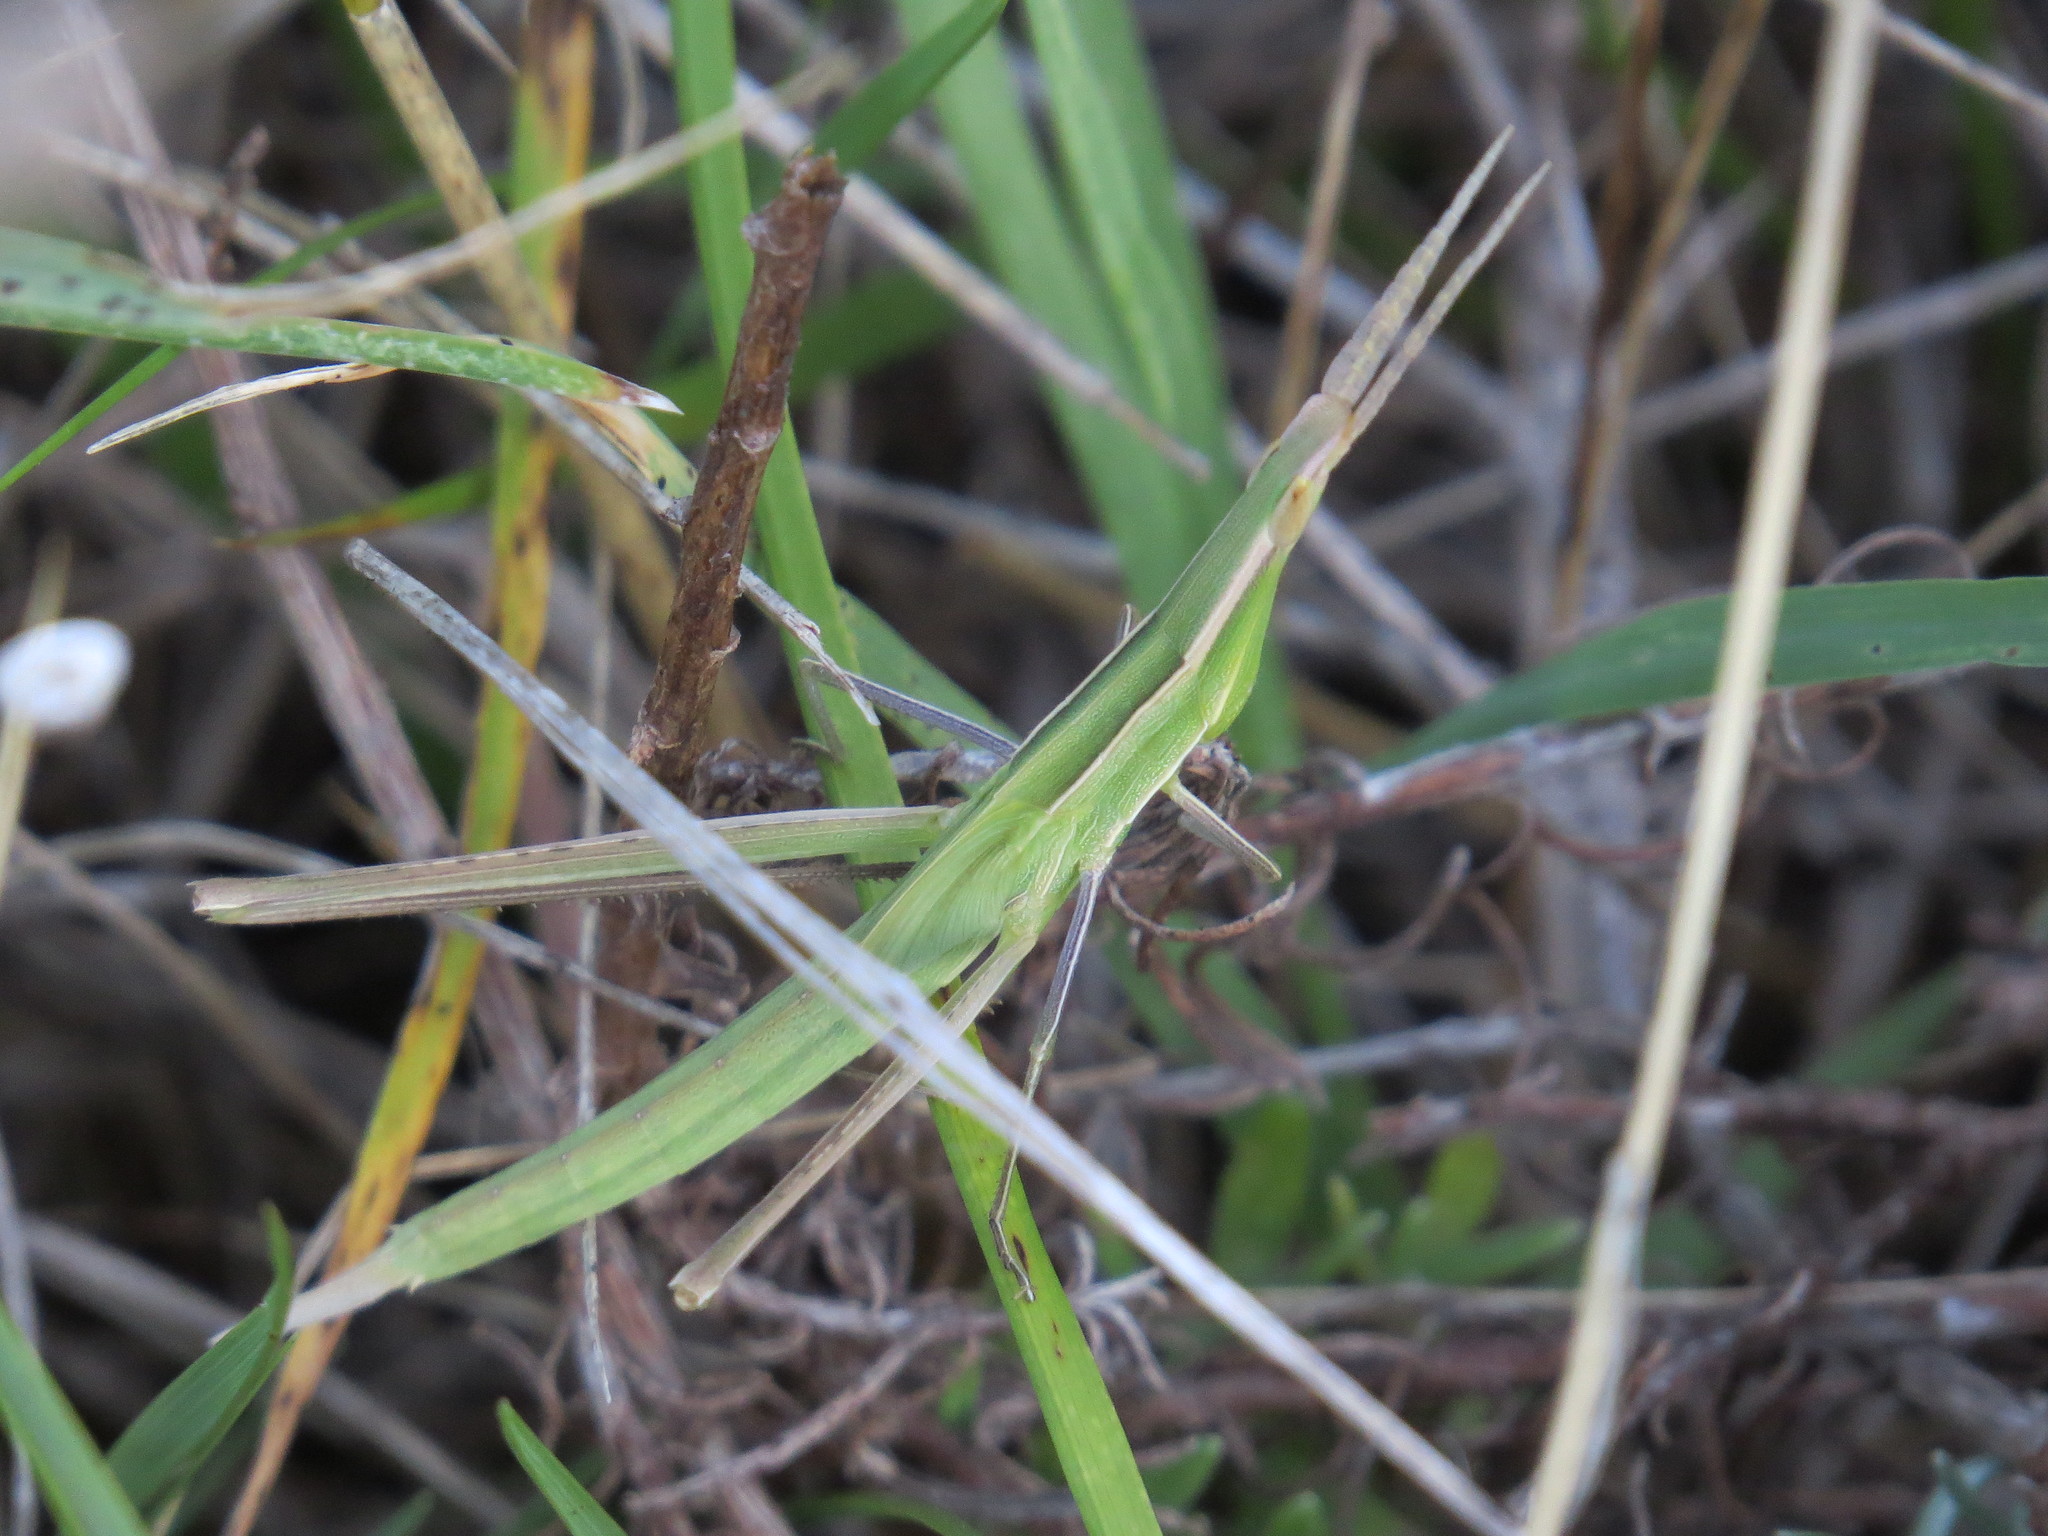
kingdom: Animalia
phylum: Arthropoda
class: Insecta
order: Orthoptera
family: Acrididae
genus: Acrida
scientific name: Acrida ungarica
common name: Common cone-headed grasshopper
